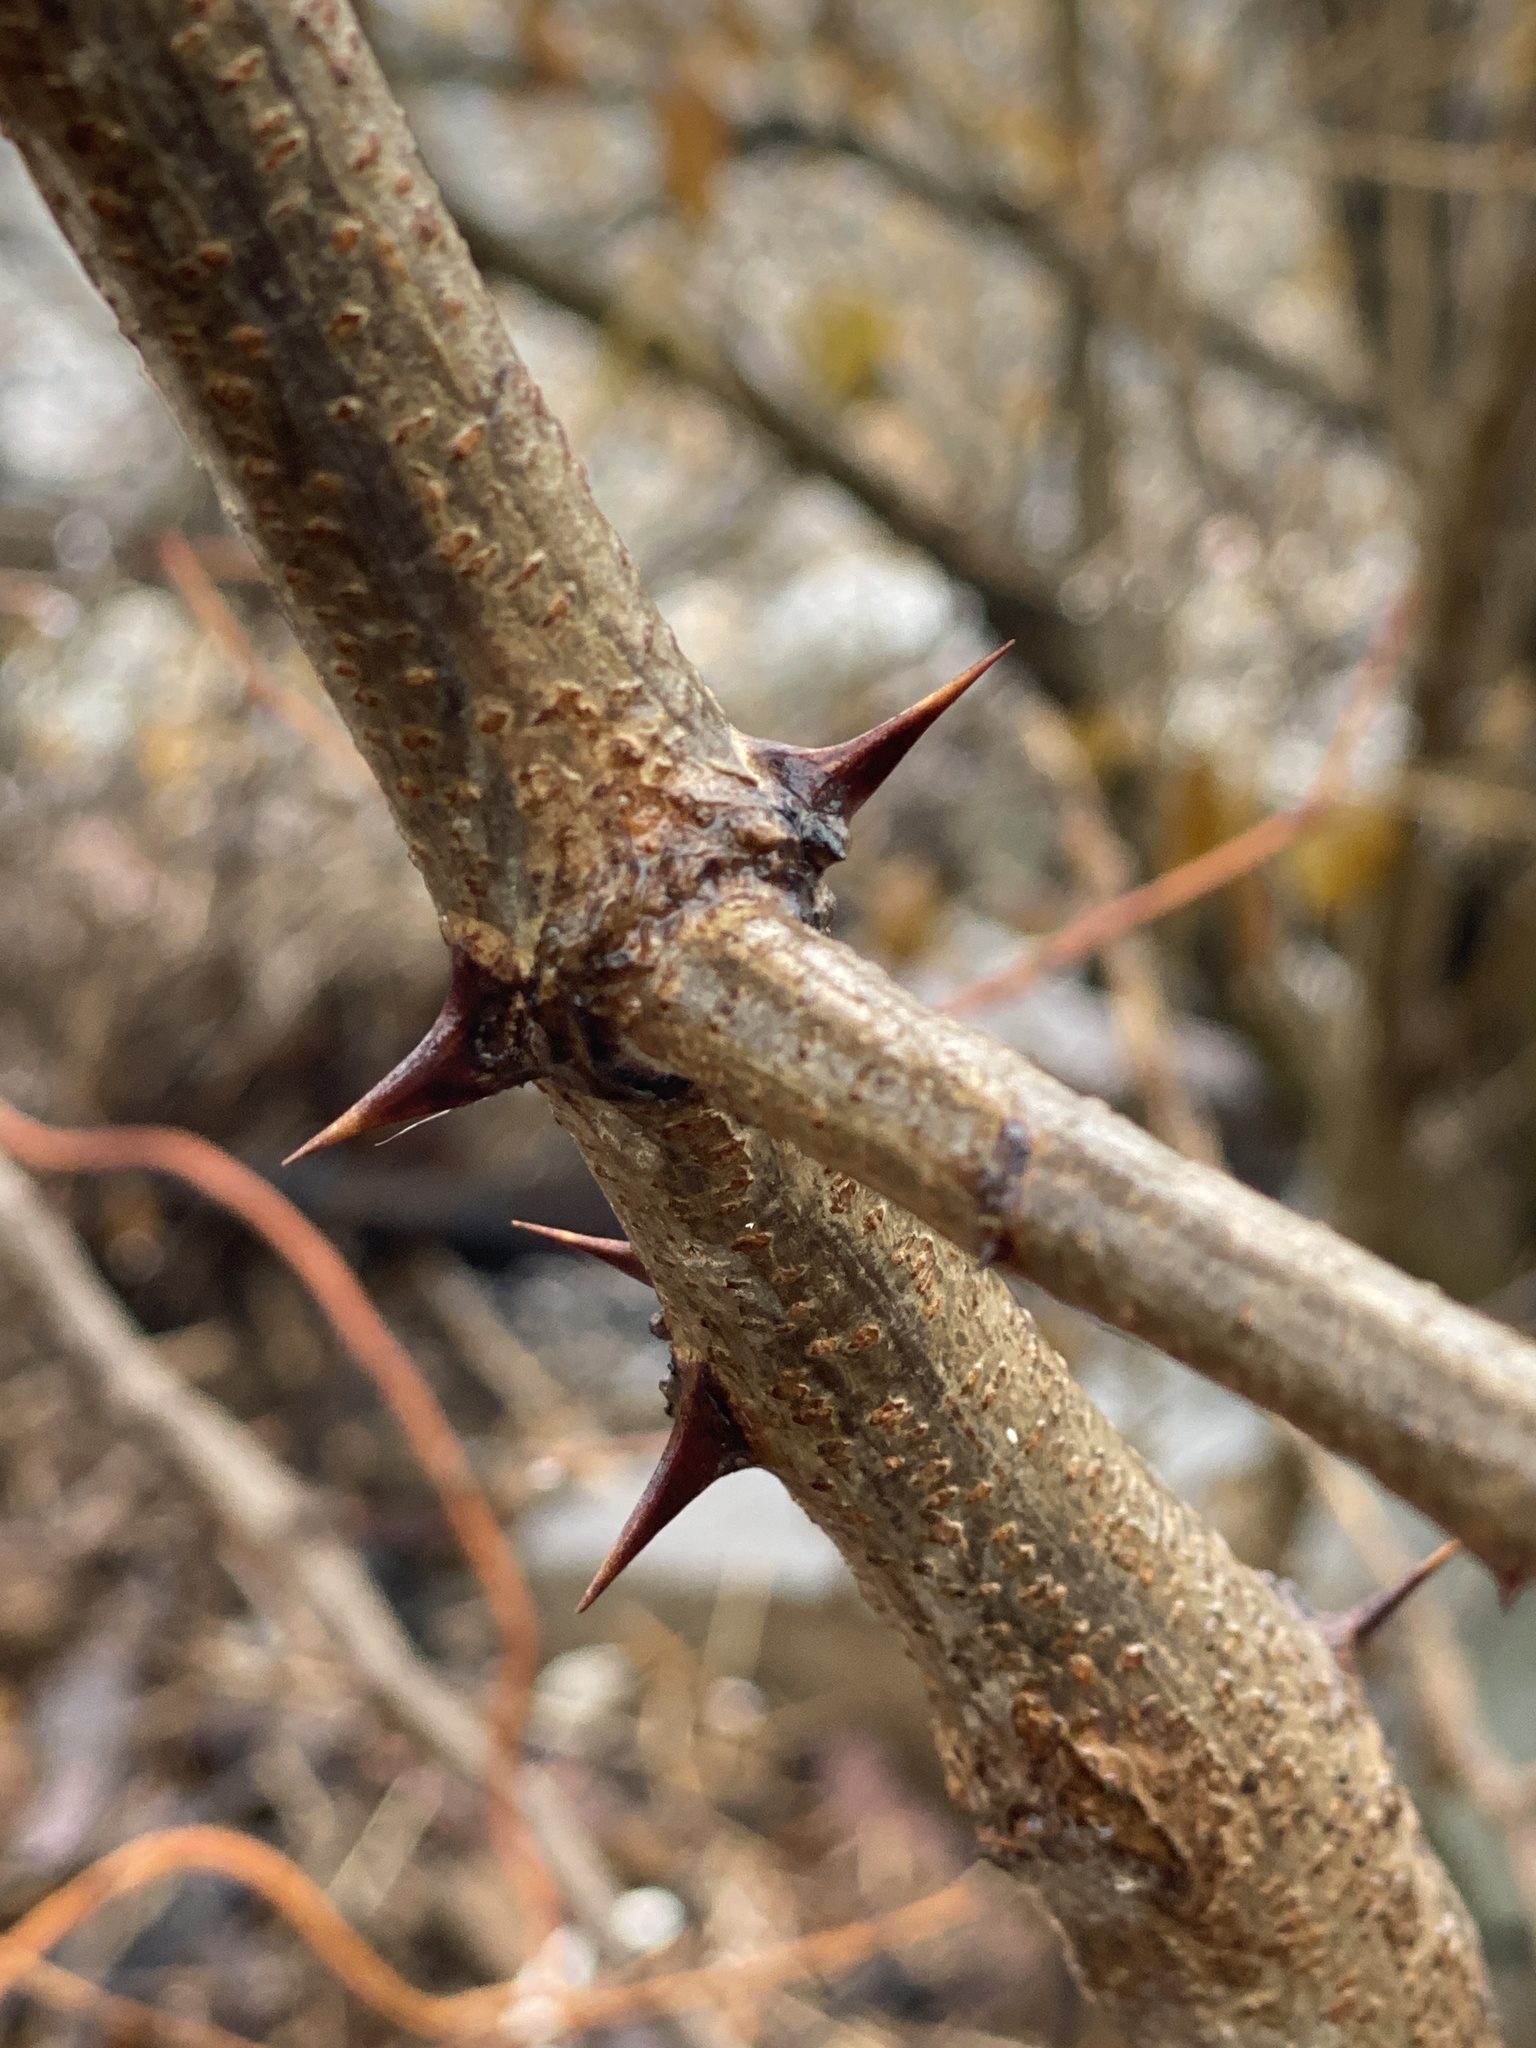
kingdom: Plantae
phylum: Tracheophyta
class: Magnoliopsida
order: Fabales
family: Fabaceae
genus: Robinia
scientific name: Robinia pseudoacacia
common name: Black locust
